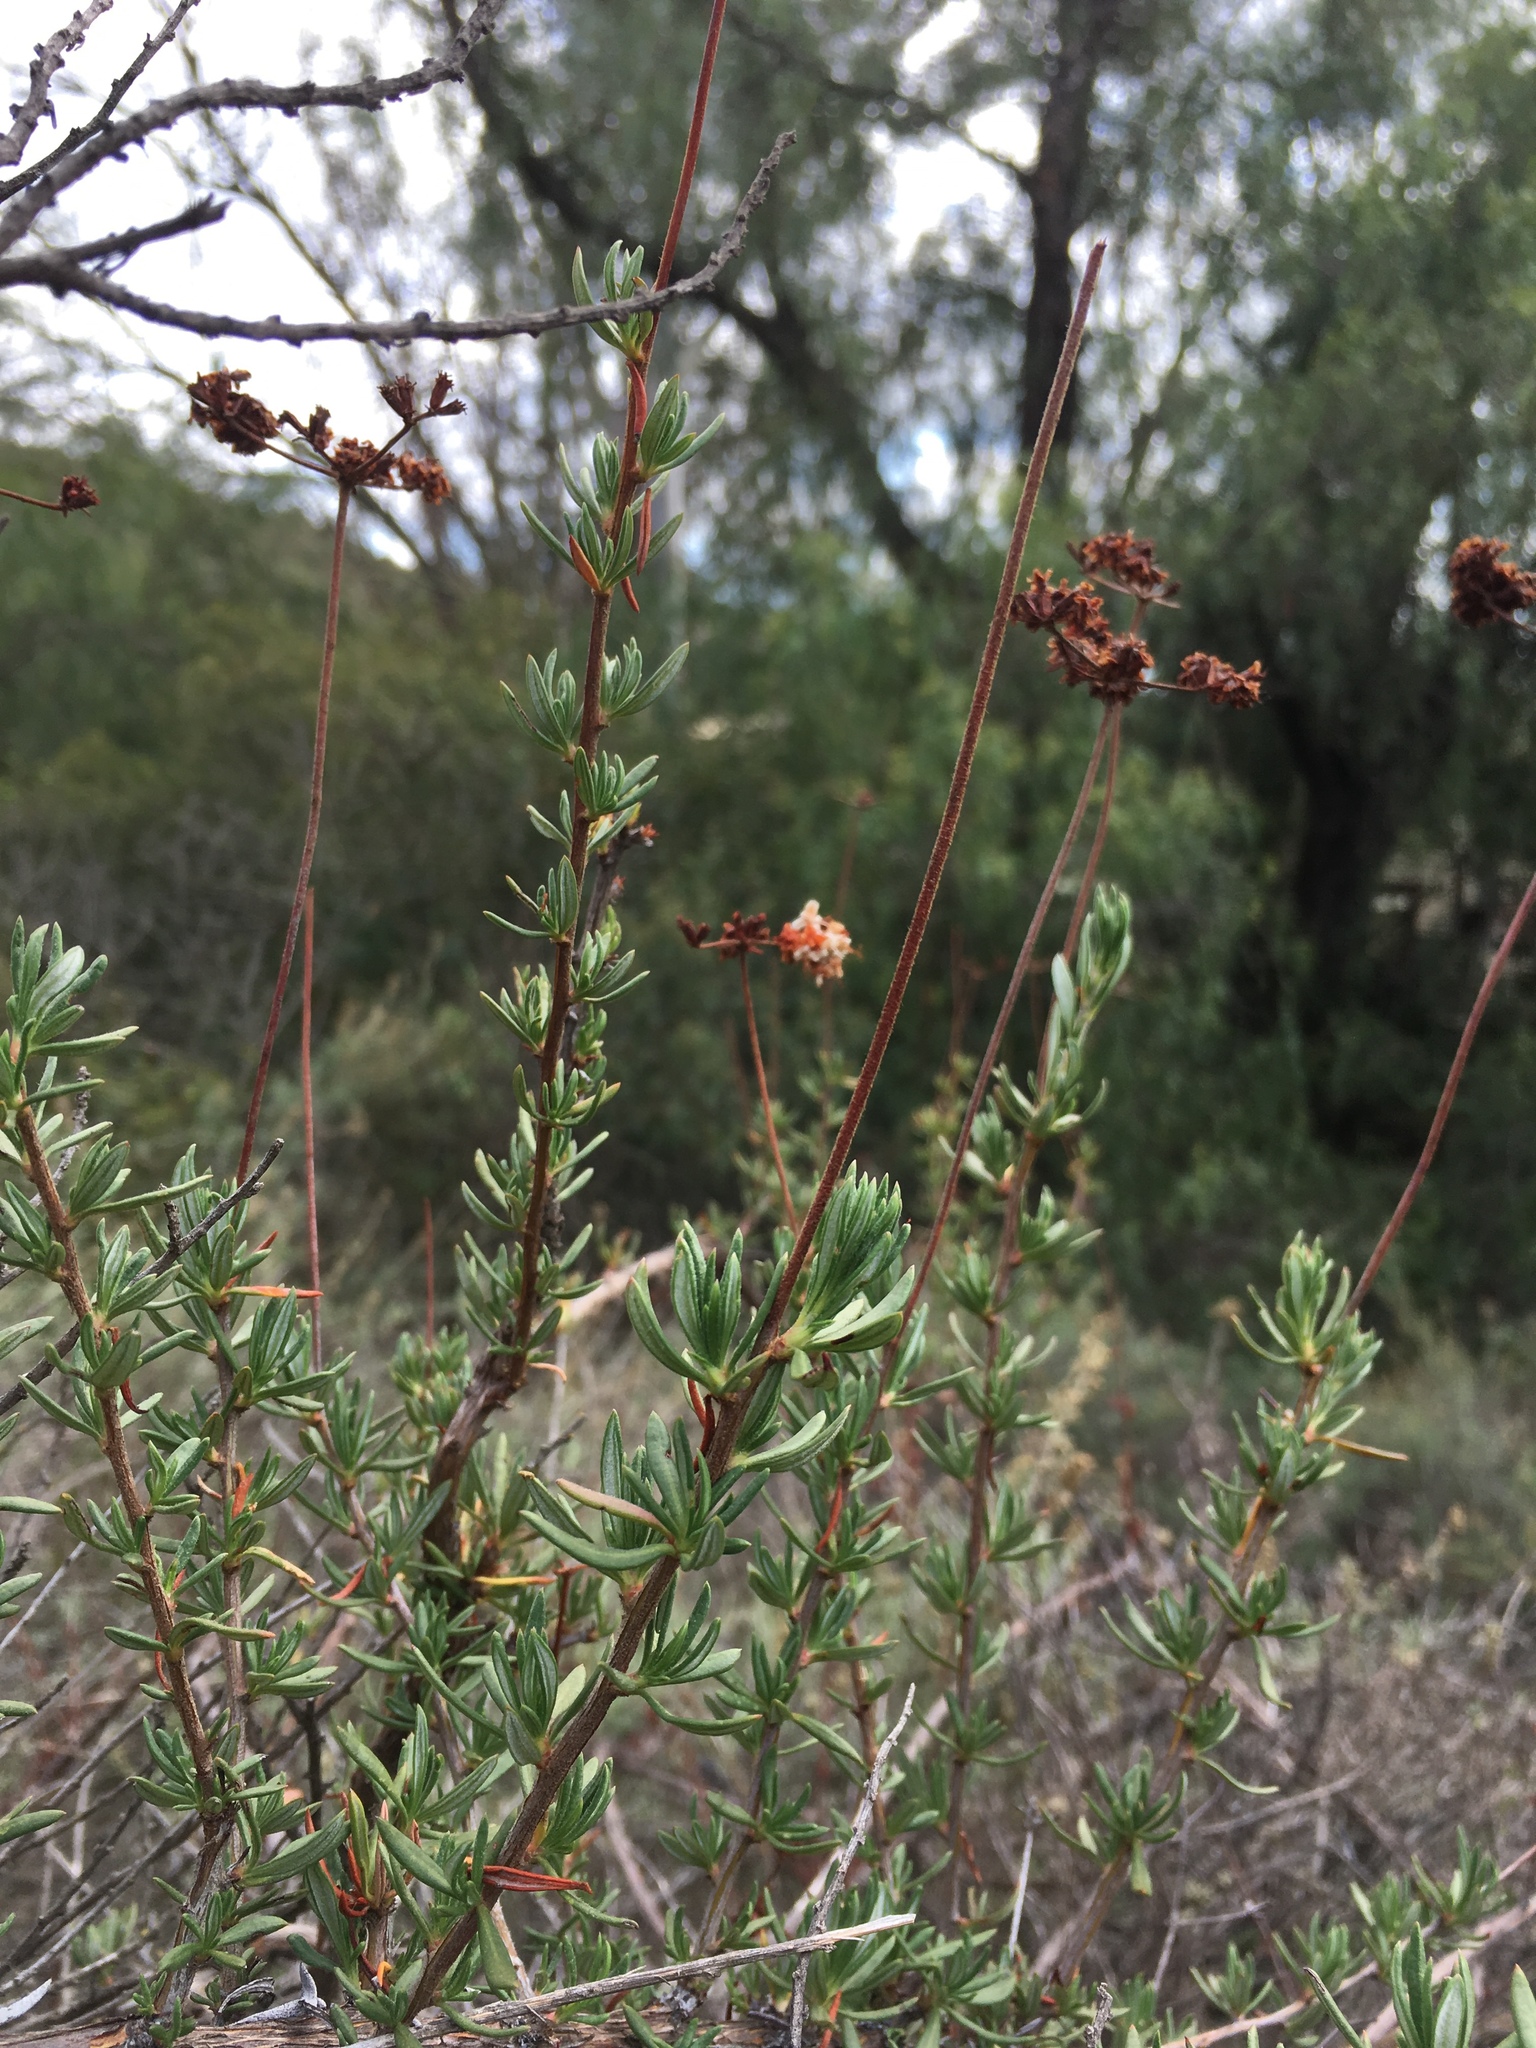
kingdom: Plantae
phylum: Tracheophyta
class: Magnoliopsida
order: Caryophyllales
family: Polygonaceae
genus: Eriogonum
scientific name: Eriogonum fasciculatum
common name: California wild buckwheat
